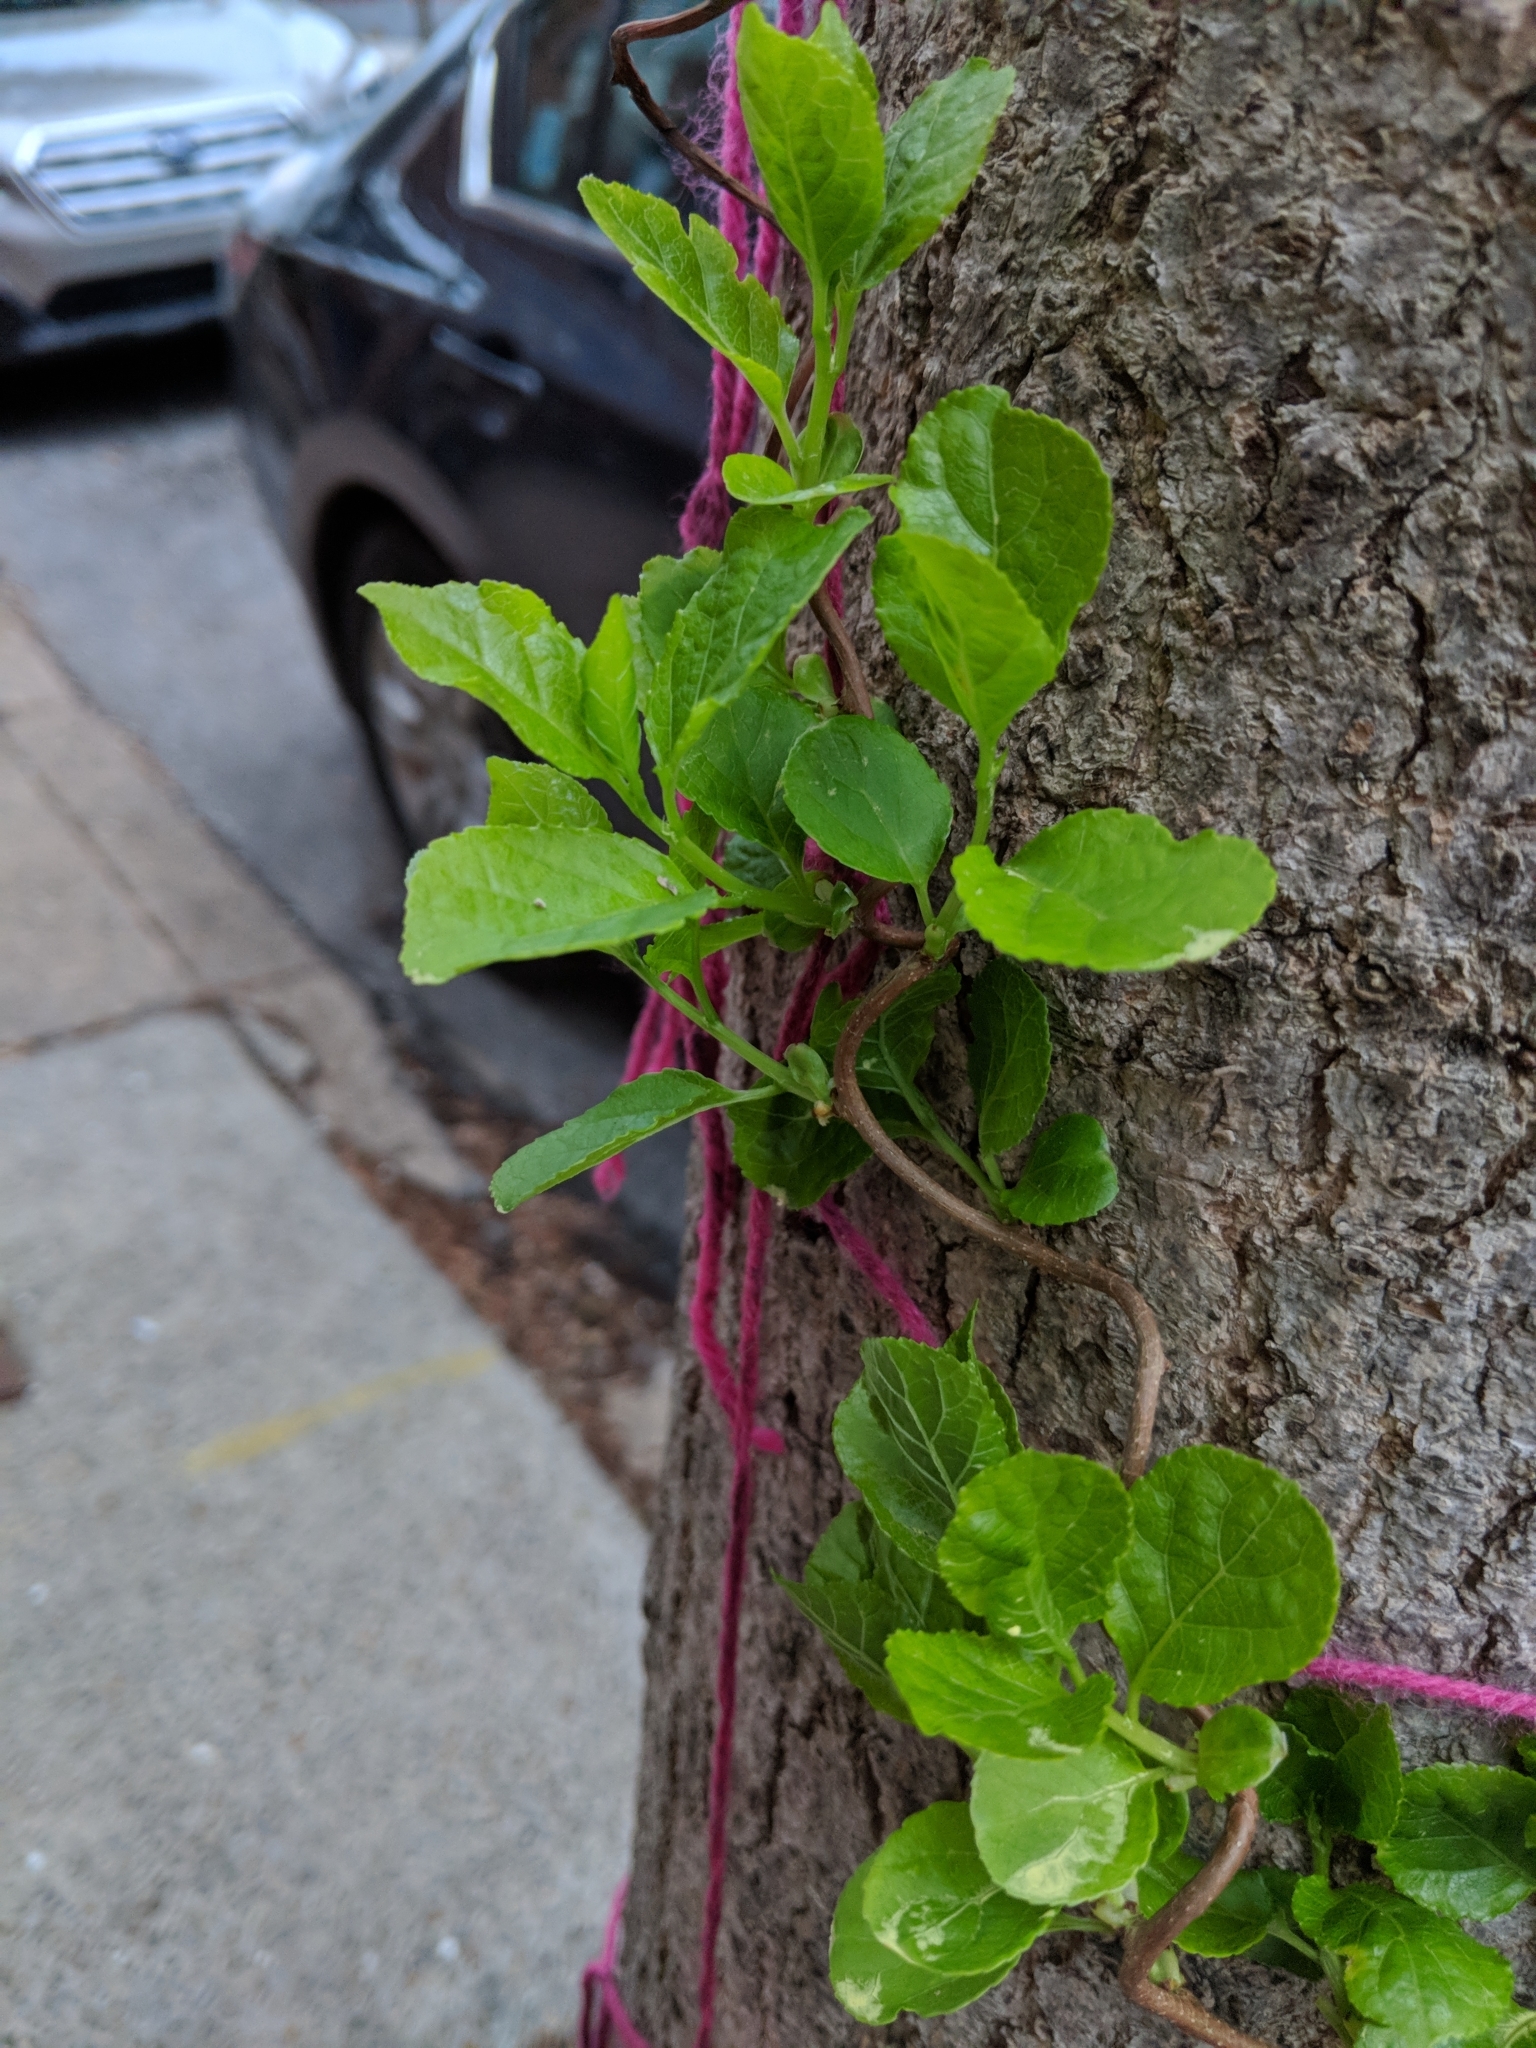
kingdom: Plantae
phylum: Tracheophyta
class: Magnoliopsida
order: Celastrales
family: Celastraceae
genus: Celastrus
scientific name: Celastrus orbiculatus
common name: Oriental bittersweet
